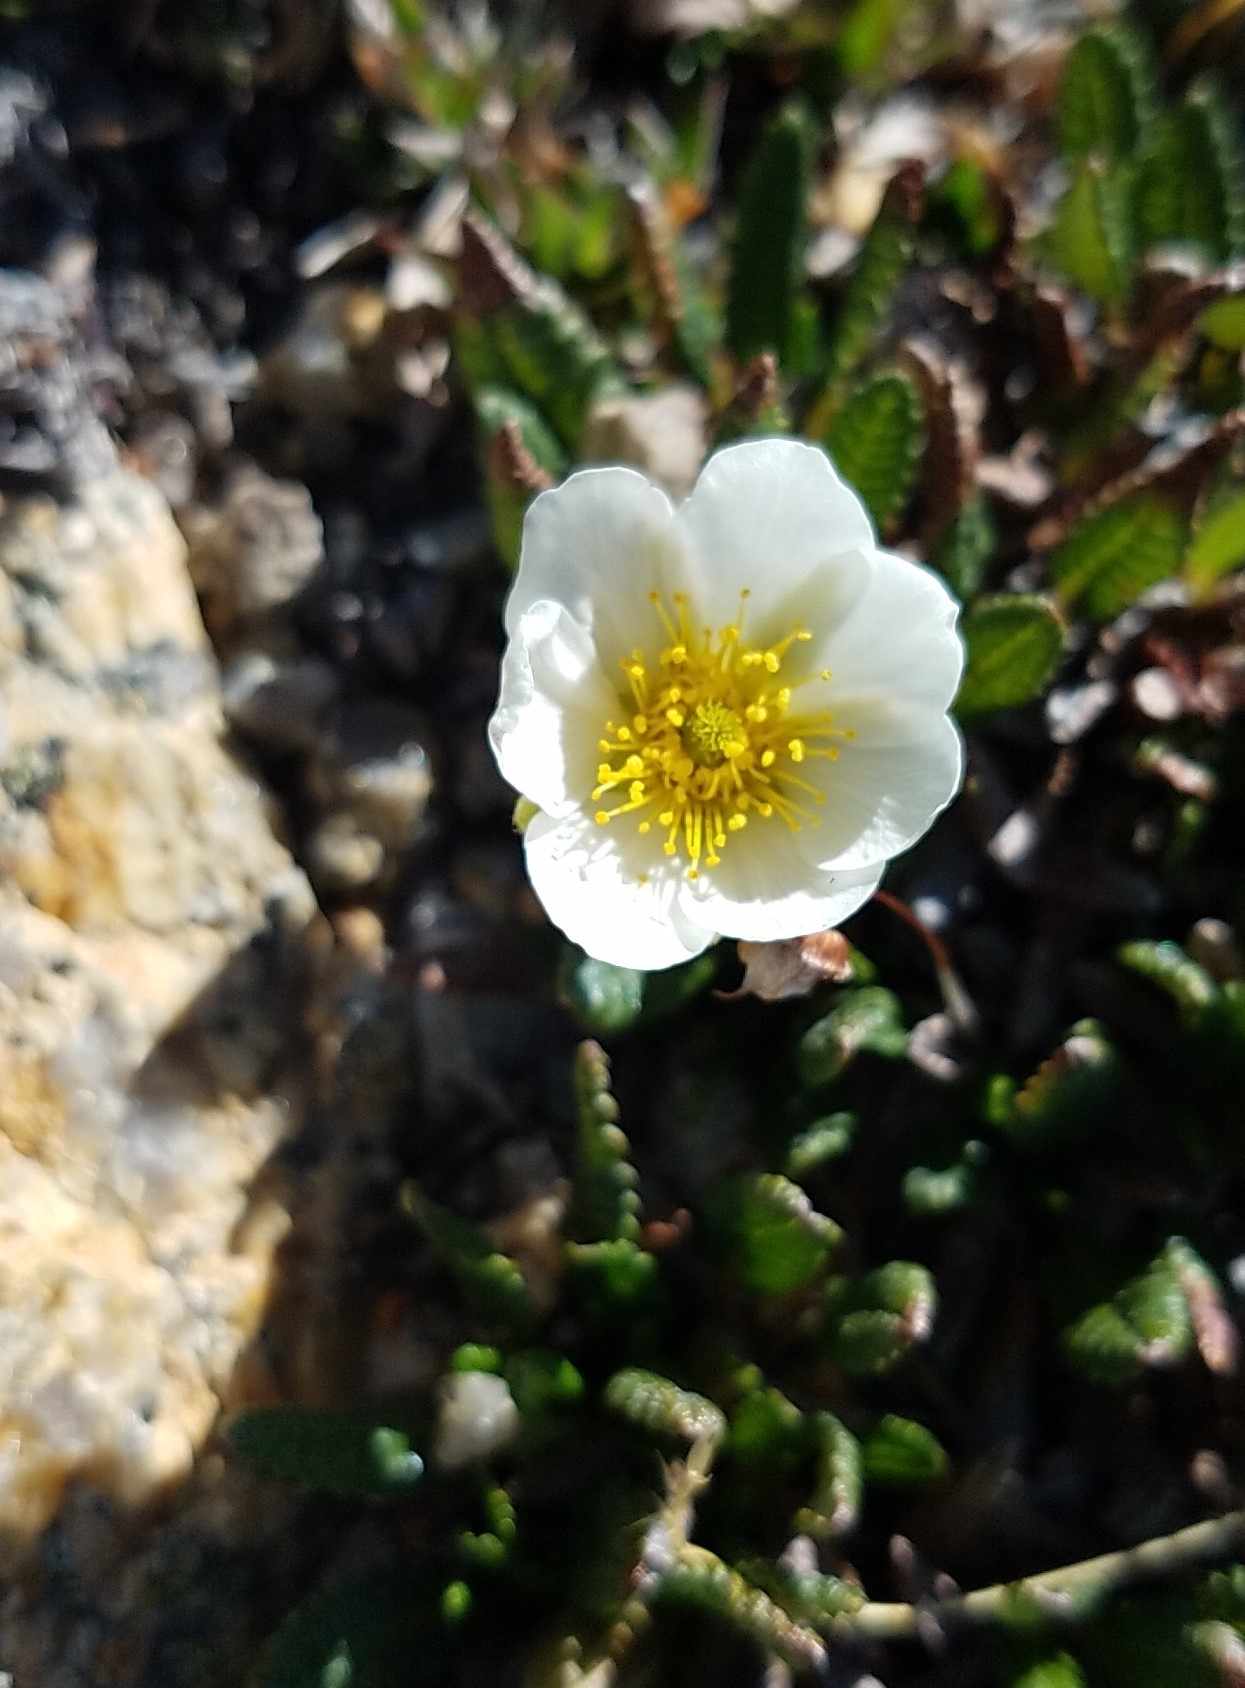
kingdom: Plantae
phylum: Tracheophyta
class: Magnoliopsida
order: Rosales
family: Rosaceae
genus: Dryas
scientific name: Dryas octopetala
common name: Eight-petal mountain-avens
